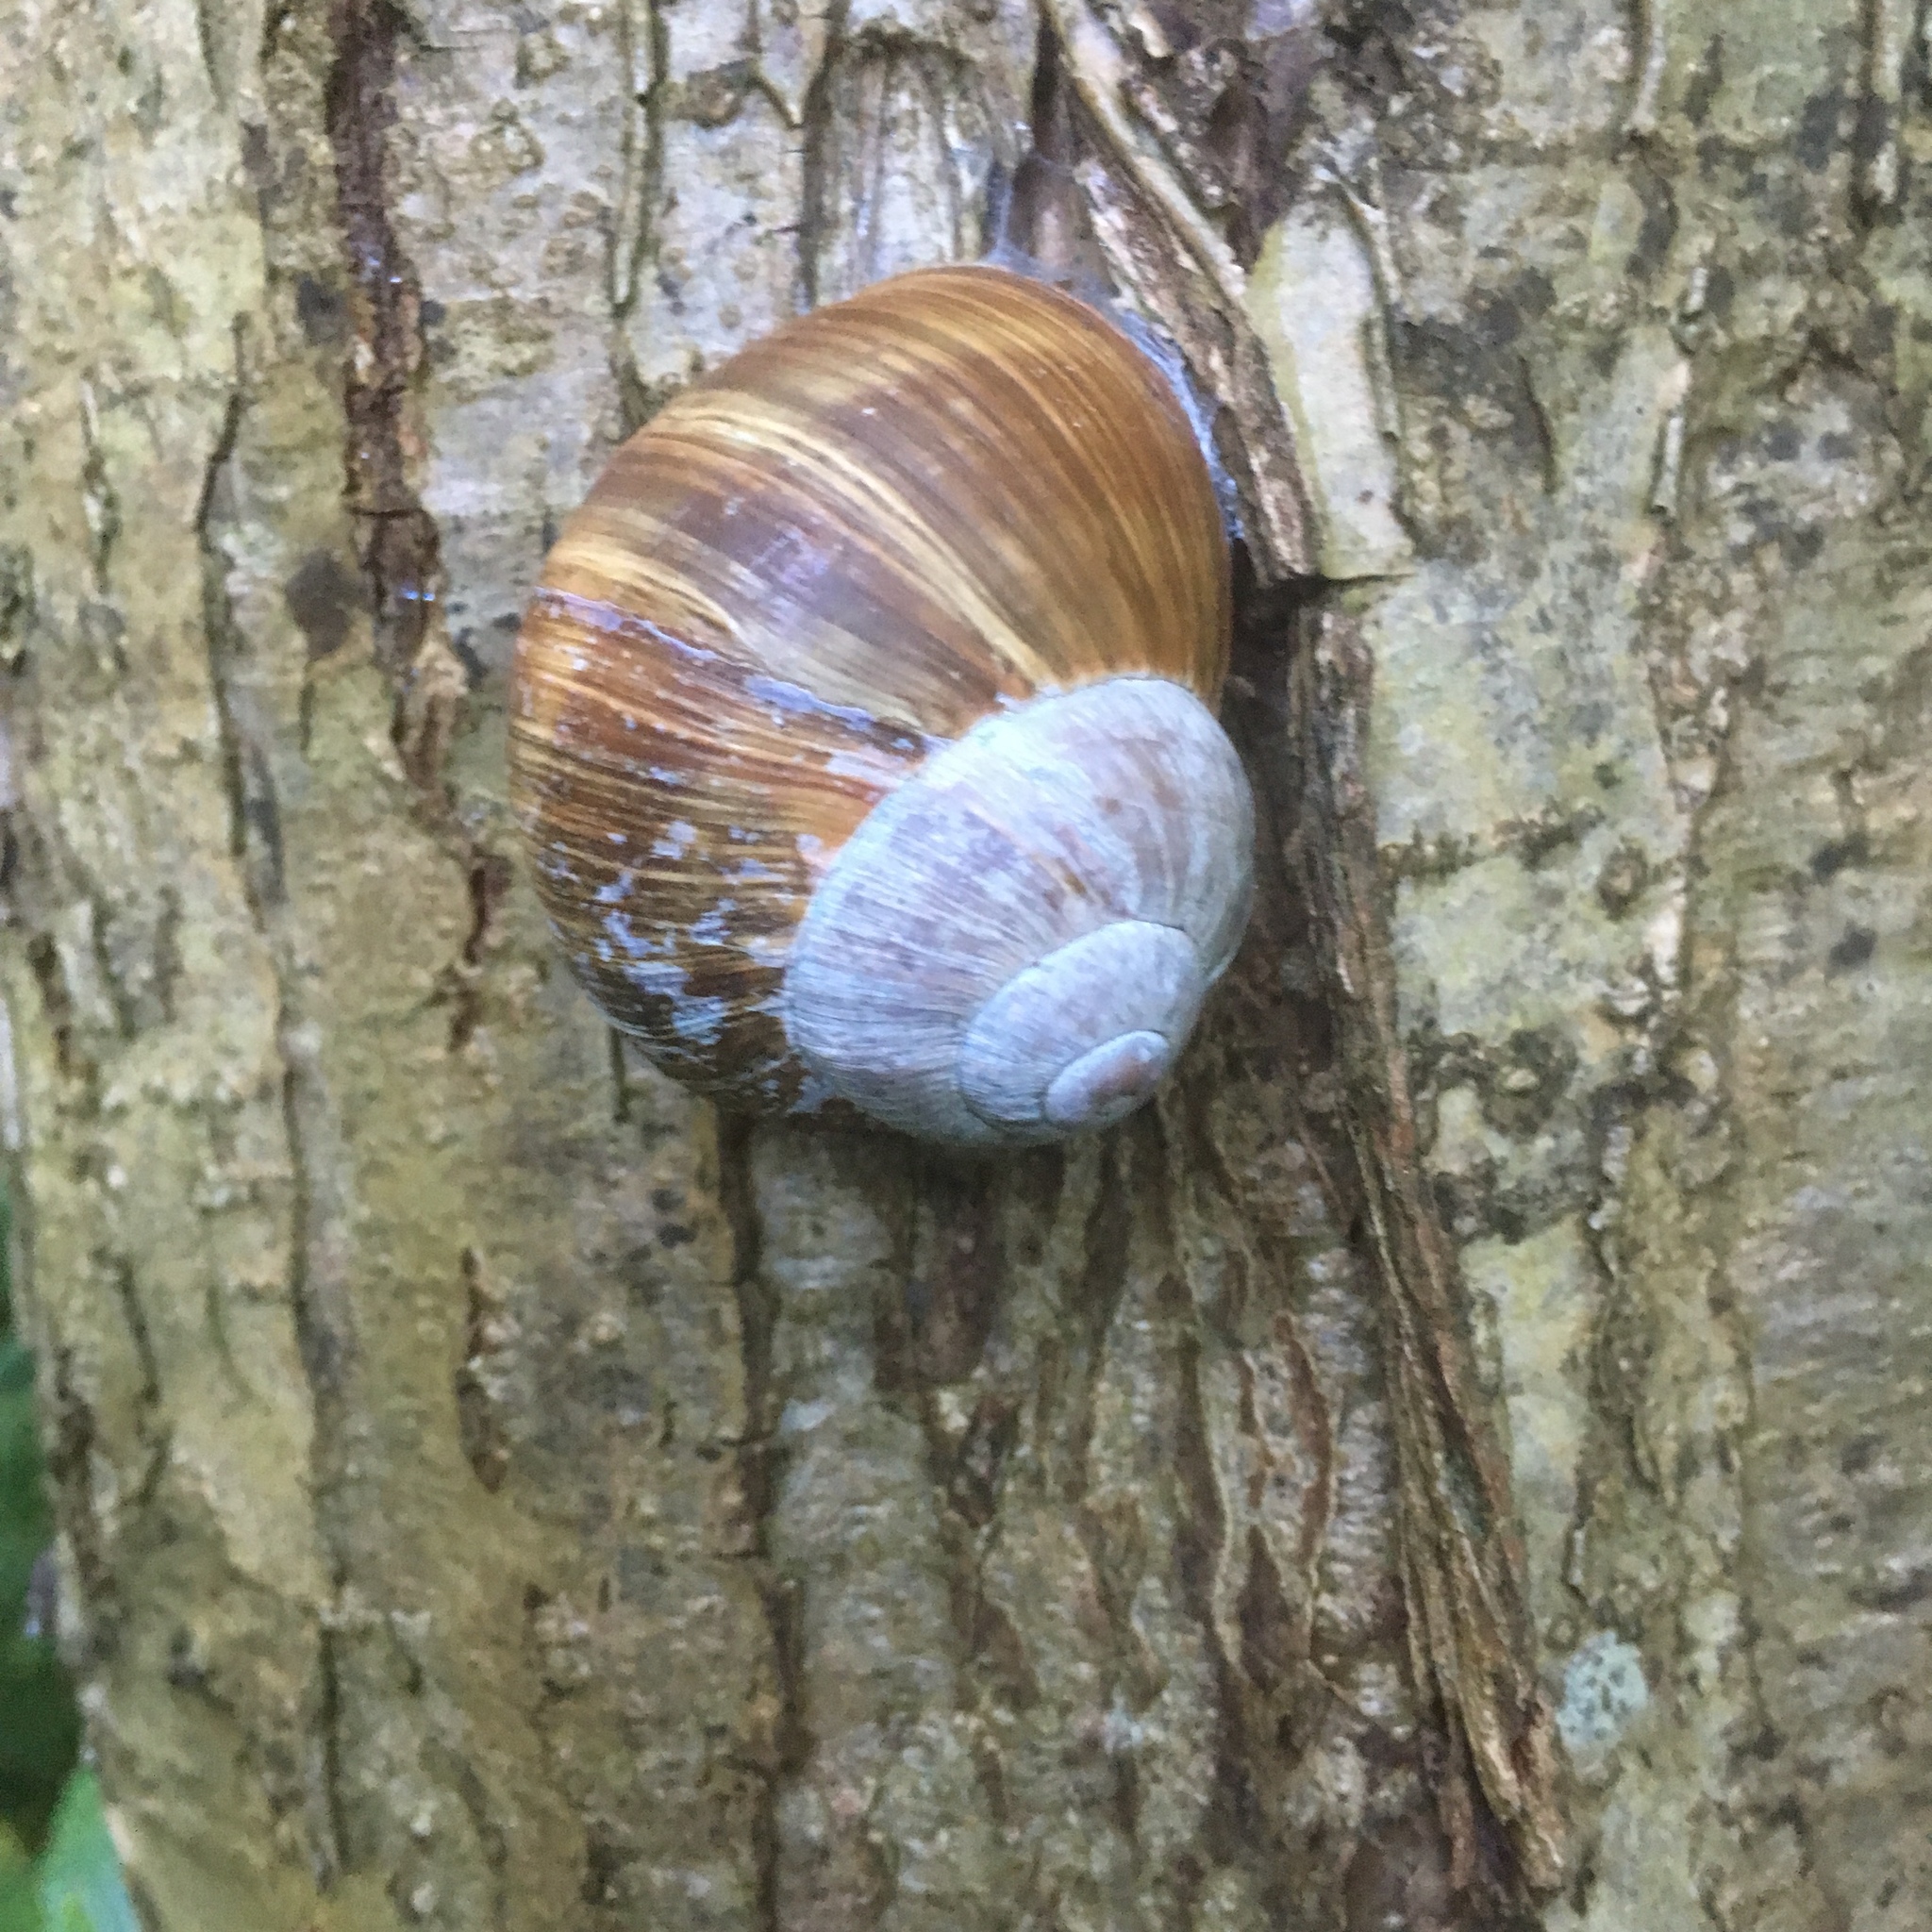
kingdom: Animalia
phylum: Mollusca
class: Gastropoda
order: Stylommatophora
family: Helicidae
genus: Helix
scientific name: Helix pomatia
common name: Roman snail
